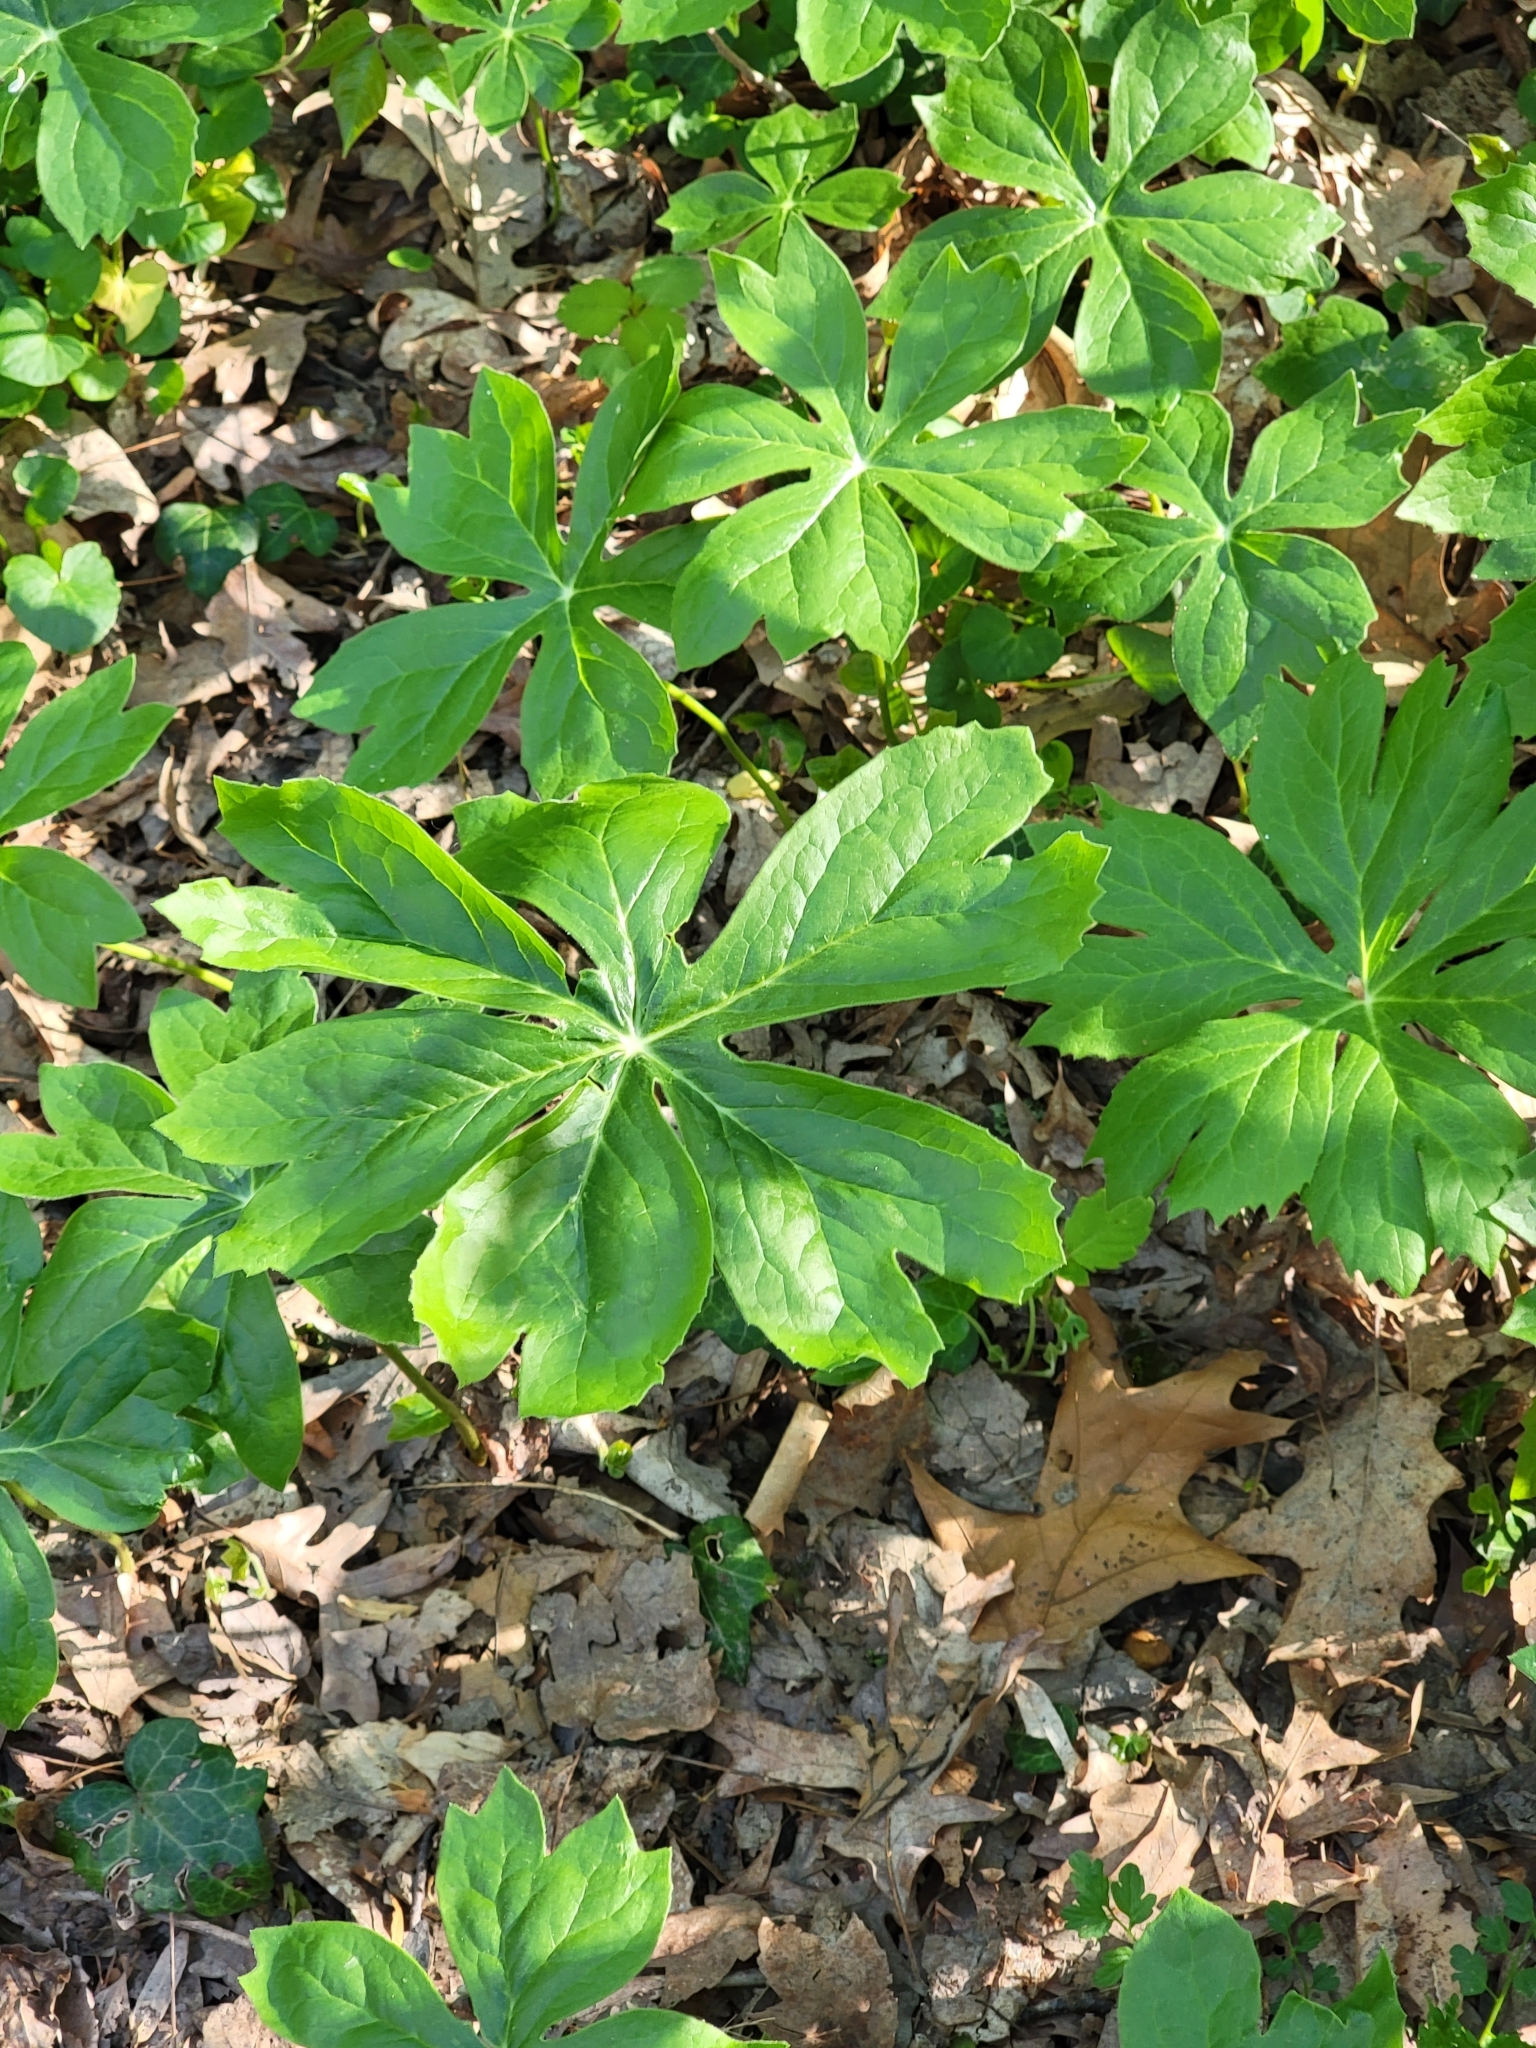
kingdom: Plantae
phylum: Tracheophyta
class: Magnoliopsida
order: Ranunculales
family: Berberidaceae
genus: Podophyllum
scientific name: Podophyllum peltatum
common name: Wild mandrake
